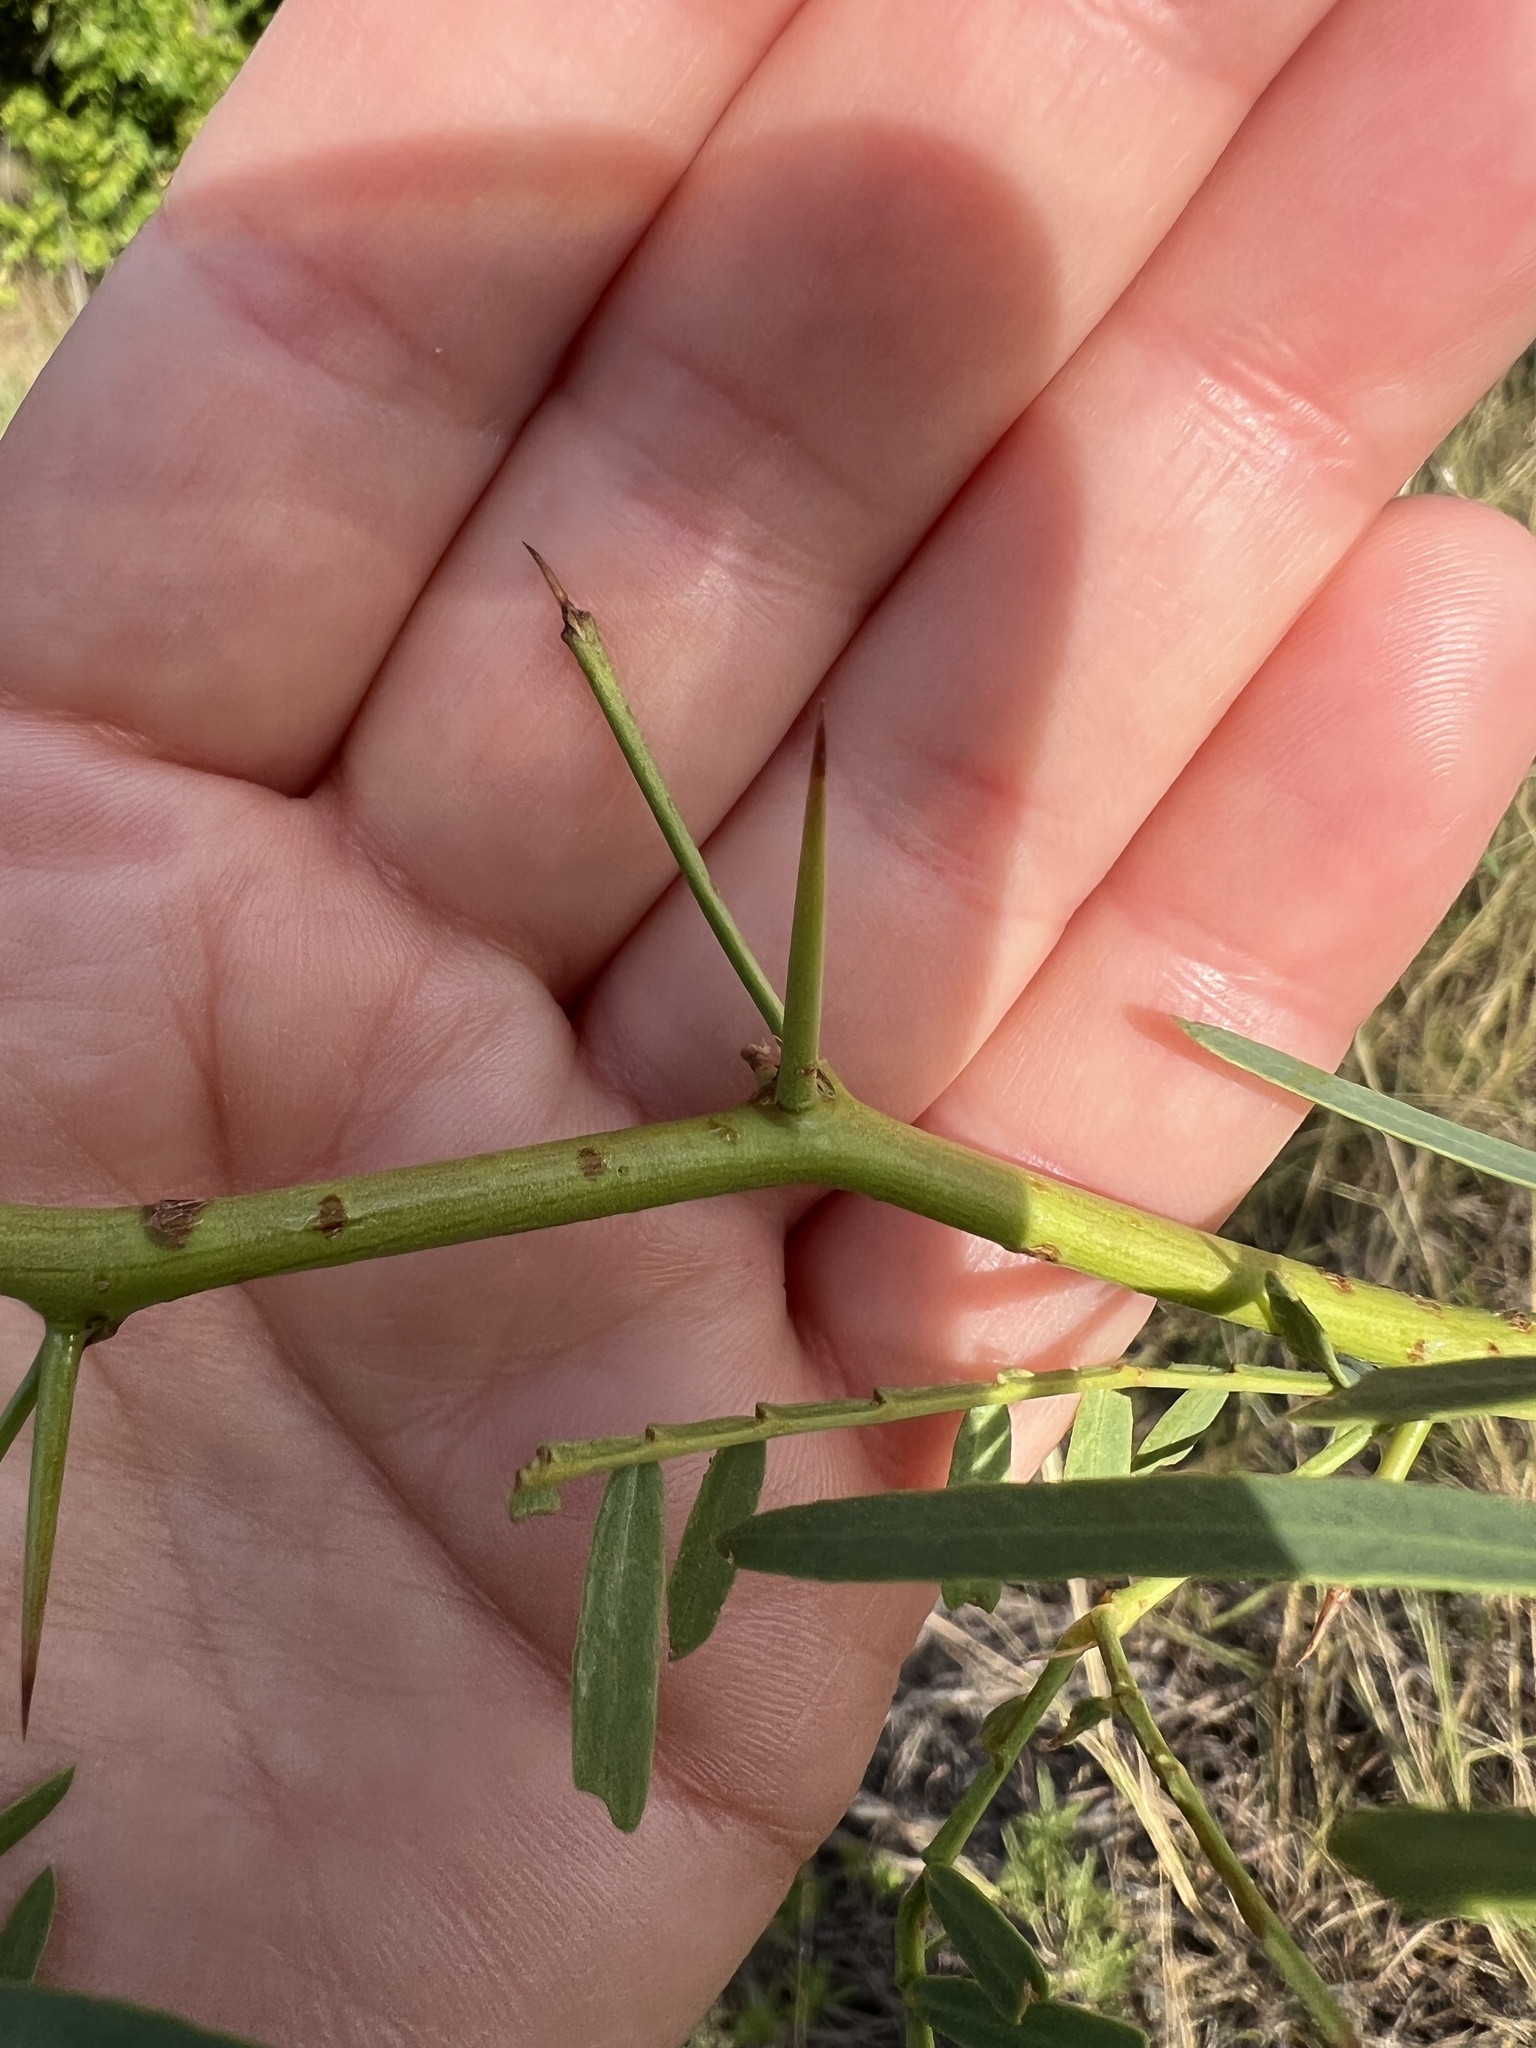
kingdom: Plantae
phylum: Tracheophyta
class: Magnoliopsida
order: Fabales
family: Fabaceae
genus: Prosopis
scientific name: Prosopis glandulosa
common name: Honey mesquite
